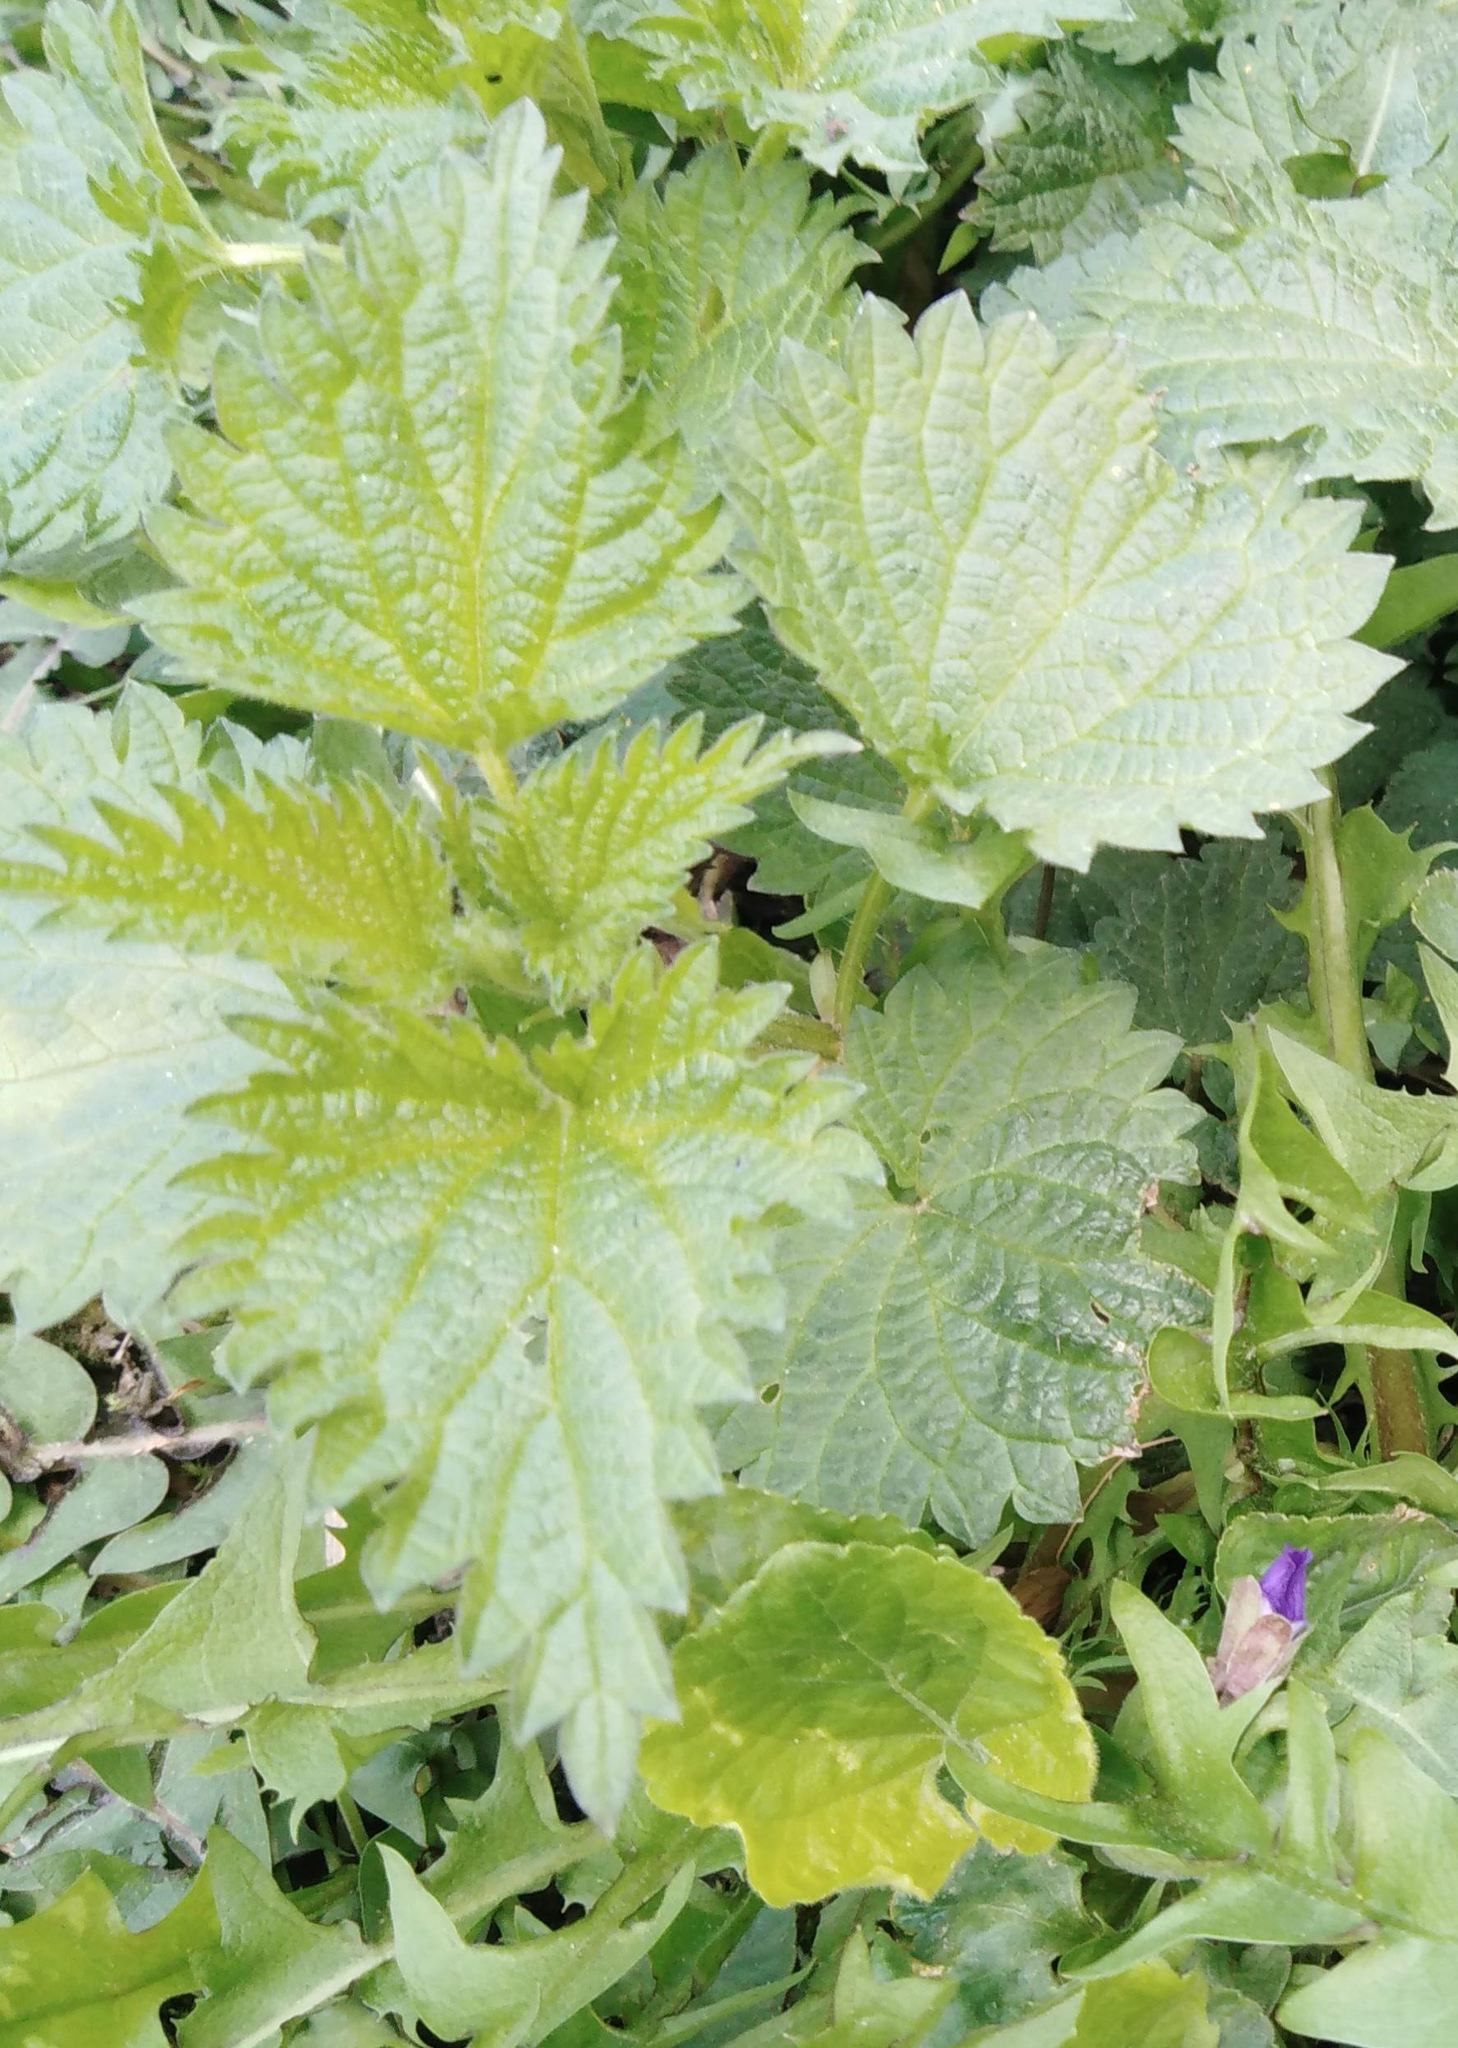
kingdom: Plantae
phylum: Tracheophyta
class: Magnoliopsida
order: Rosales
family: Urticaceae
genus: Urtica
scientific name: Urtica dioica
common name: Common nettle
